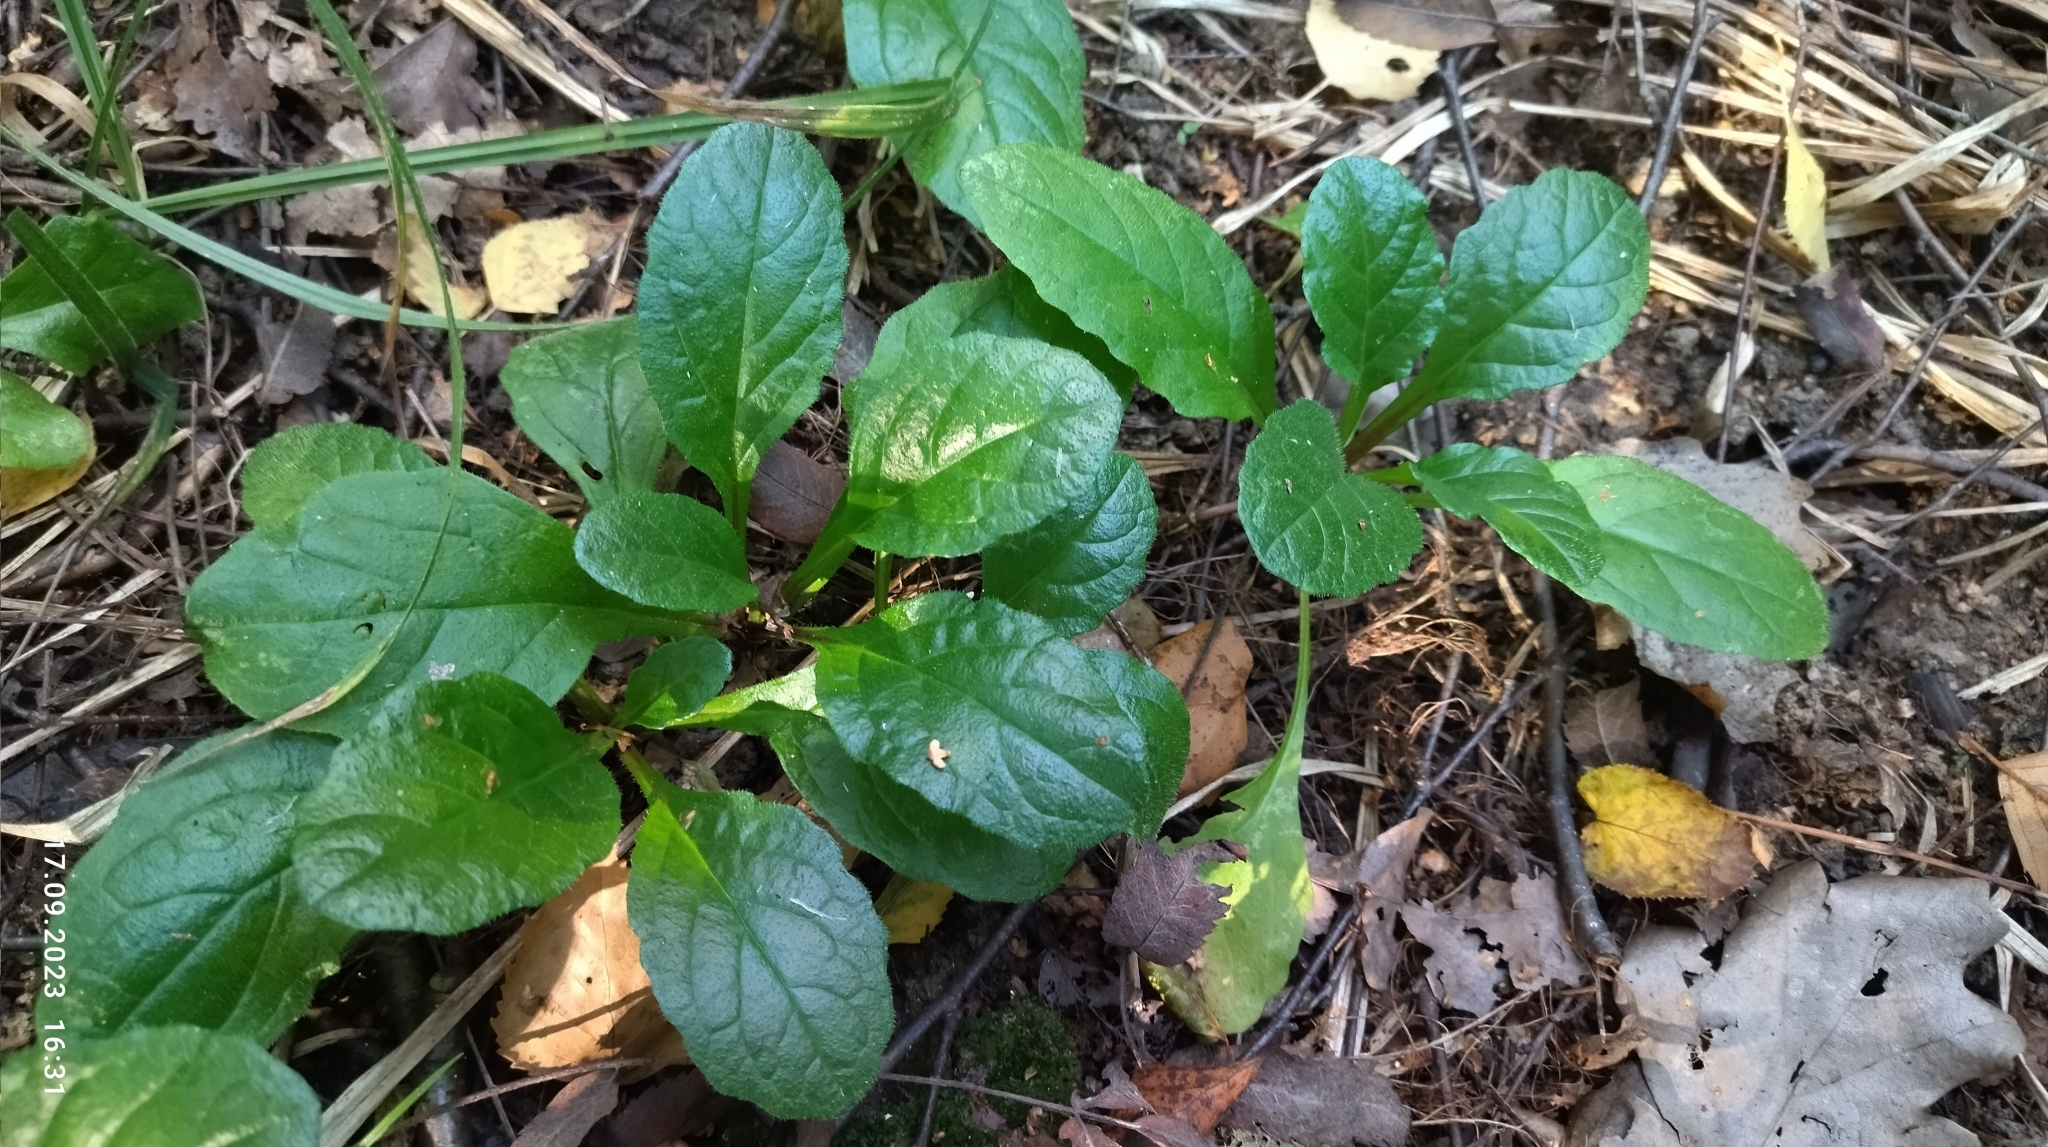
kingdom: Plantae
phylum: Tracheophyta
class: Magnoliopsida
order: Lamiales
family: Lamiaceae
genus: Ajuga
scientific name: Ajuga reptans
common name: Bugle
